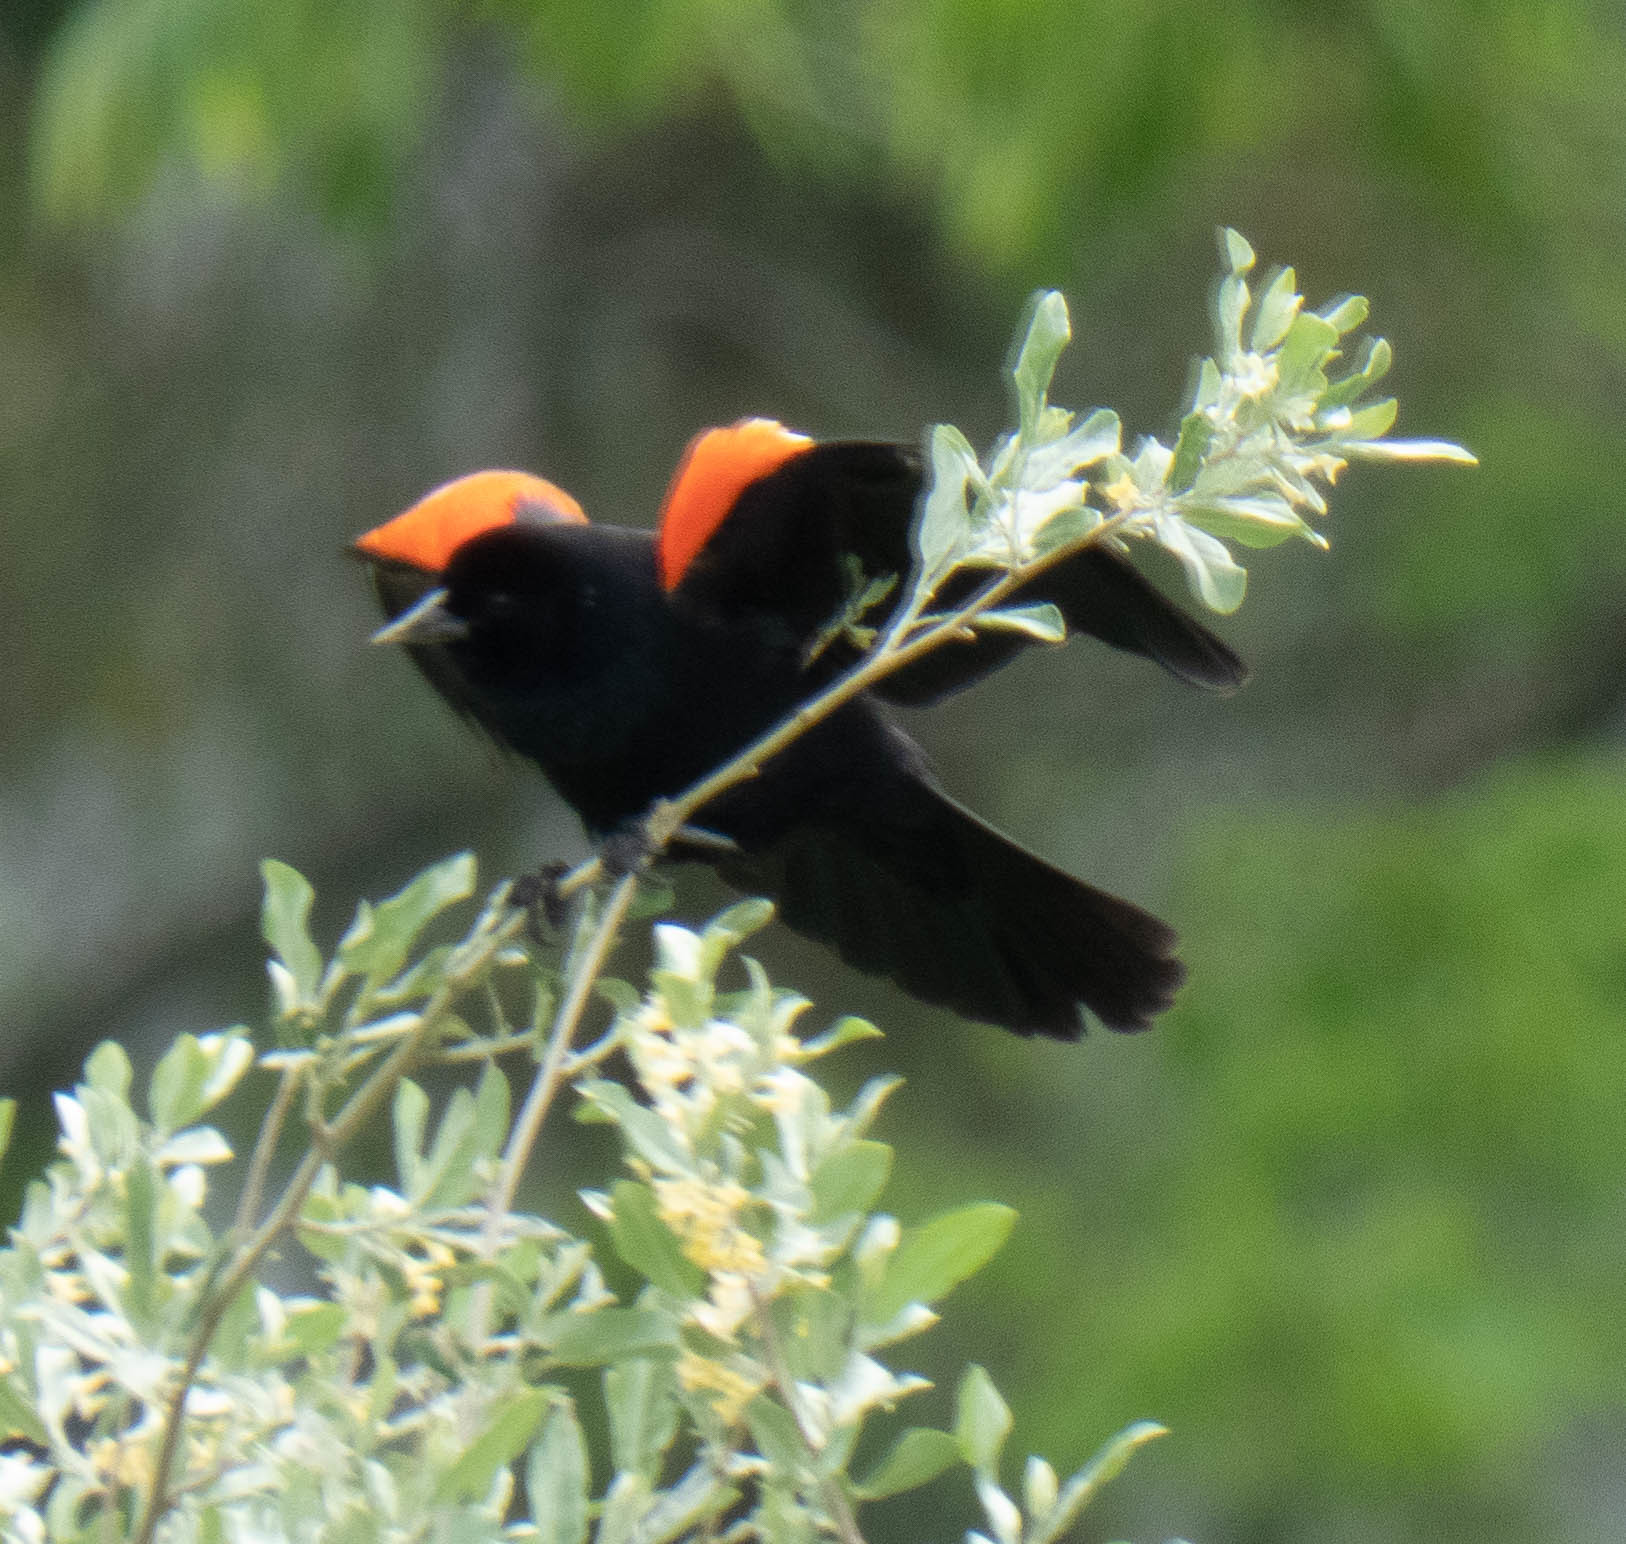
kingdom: Animalia
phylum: Chordata
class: Aves
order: Passeriformes
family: Icteridae
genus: Agelaius
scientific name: Agelaius phoeniceus
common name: Red-winged blackbird
